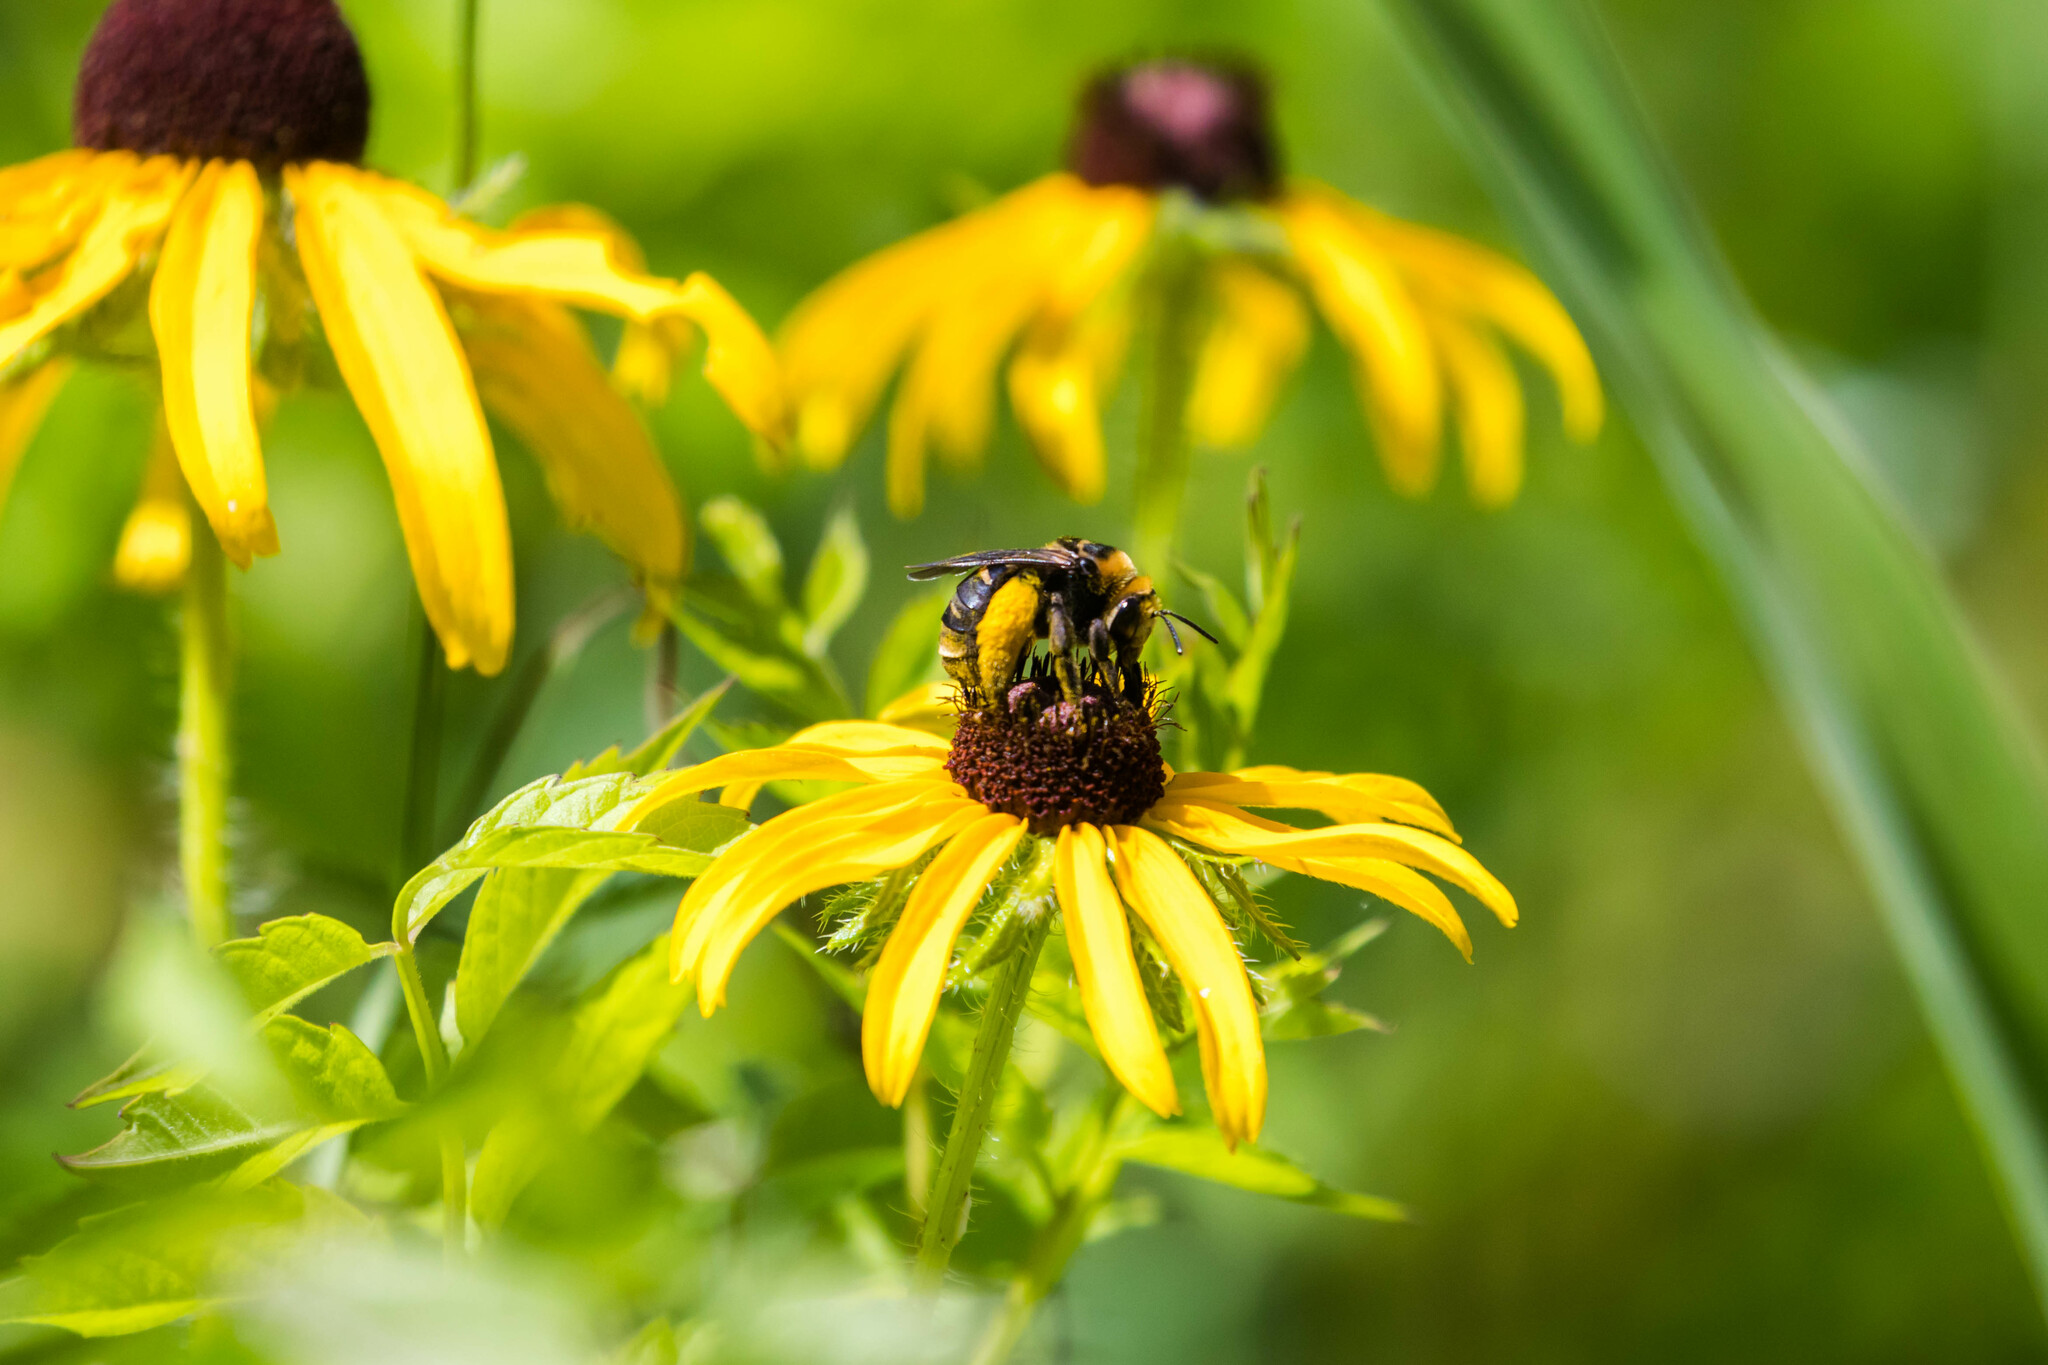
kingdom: Animalia
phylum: Arthropoda
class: Insecta
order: Hymenoptera
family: Apidae
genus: Svastra
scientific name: Svastra obliqua
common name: Oblique longhorn
